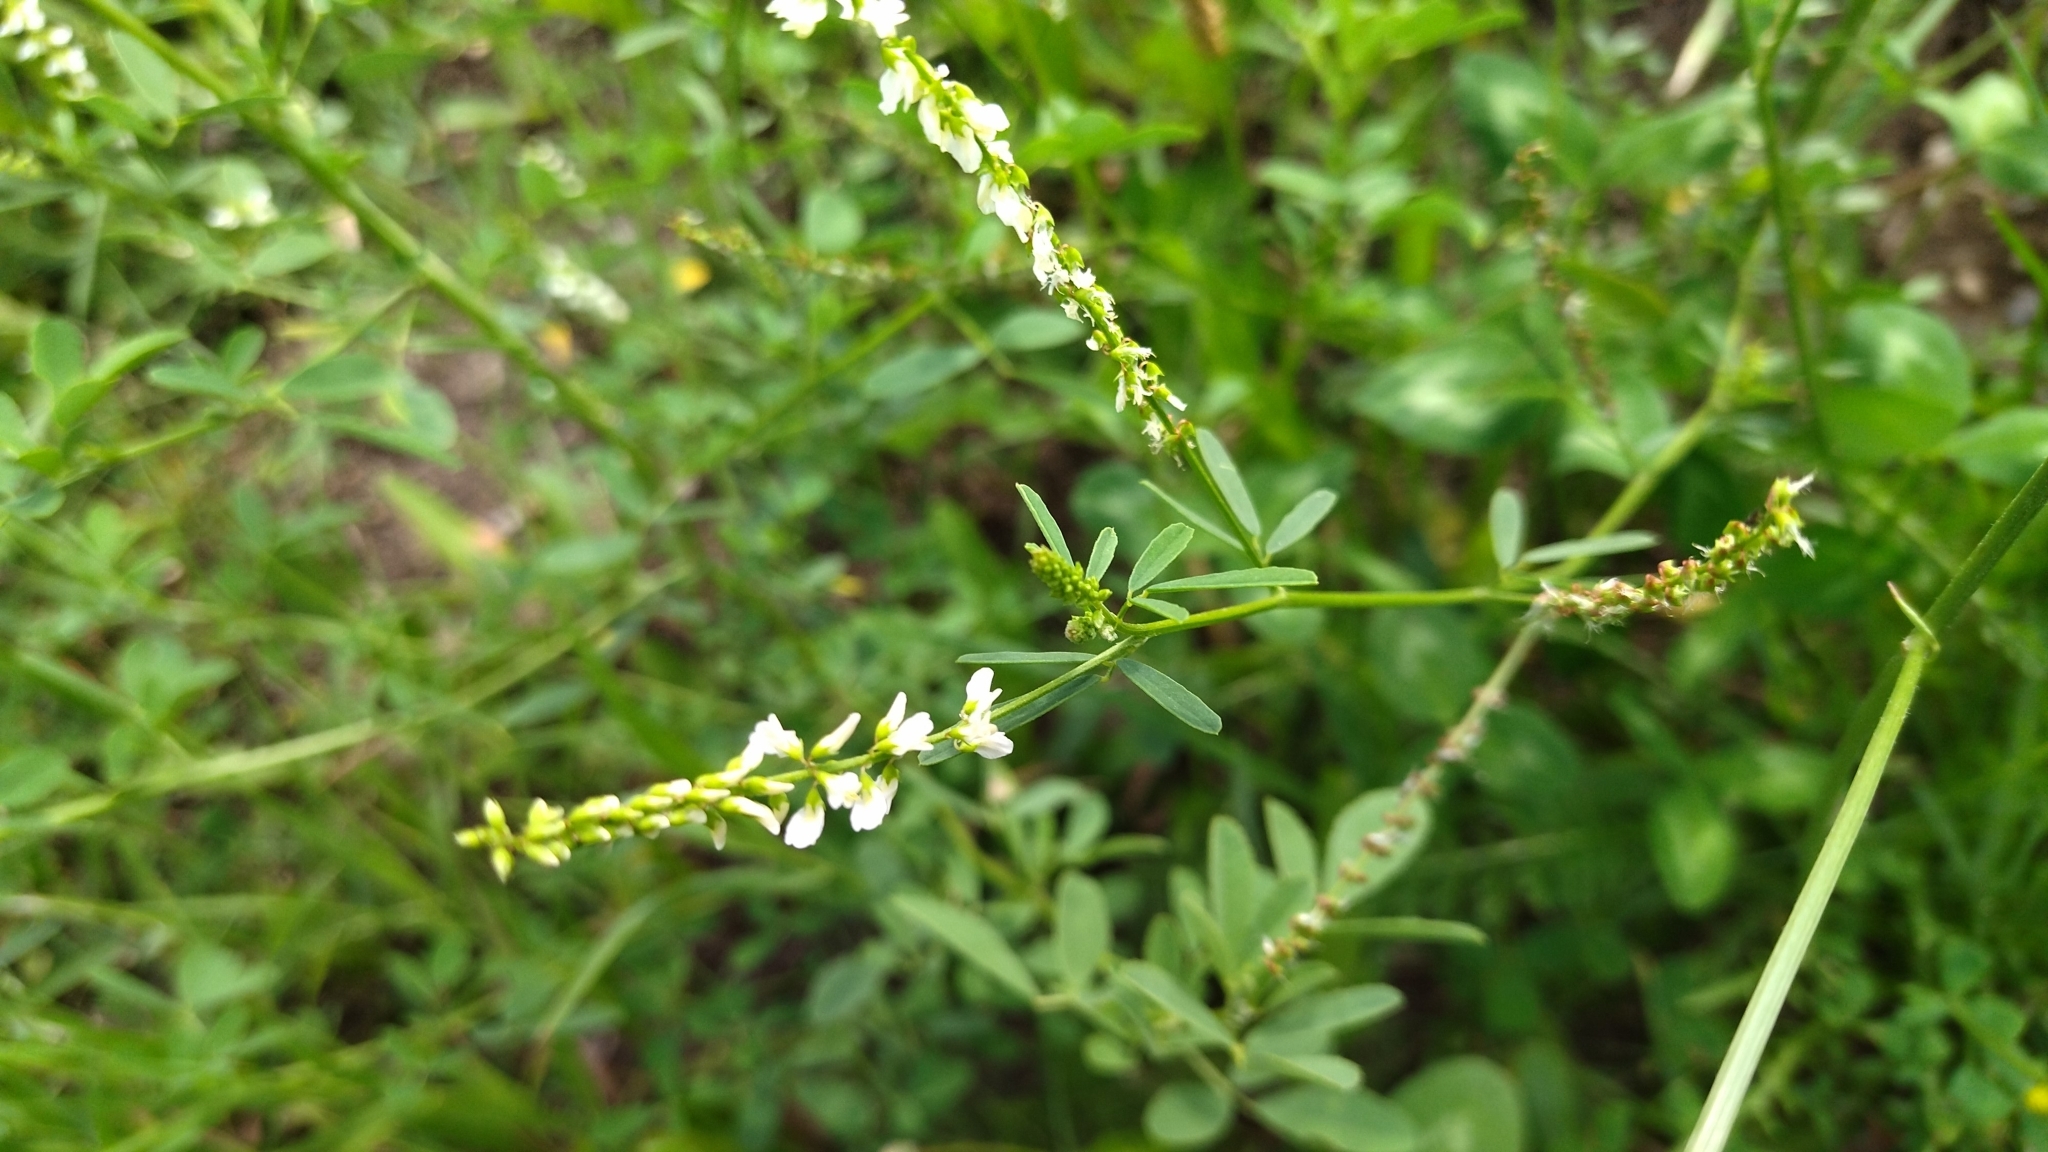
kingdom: Plantae
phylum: Tracheophyta
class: Magnoliopsida
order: Fabales
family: Fabaceae
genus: Melilotus
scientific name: Melilotus albus
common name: White melilot
